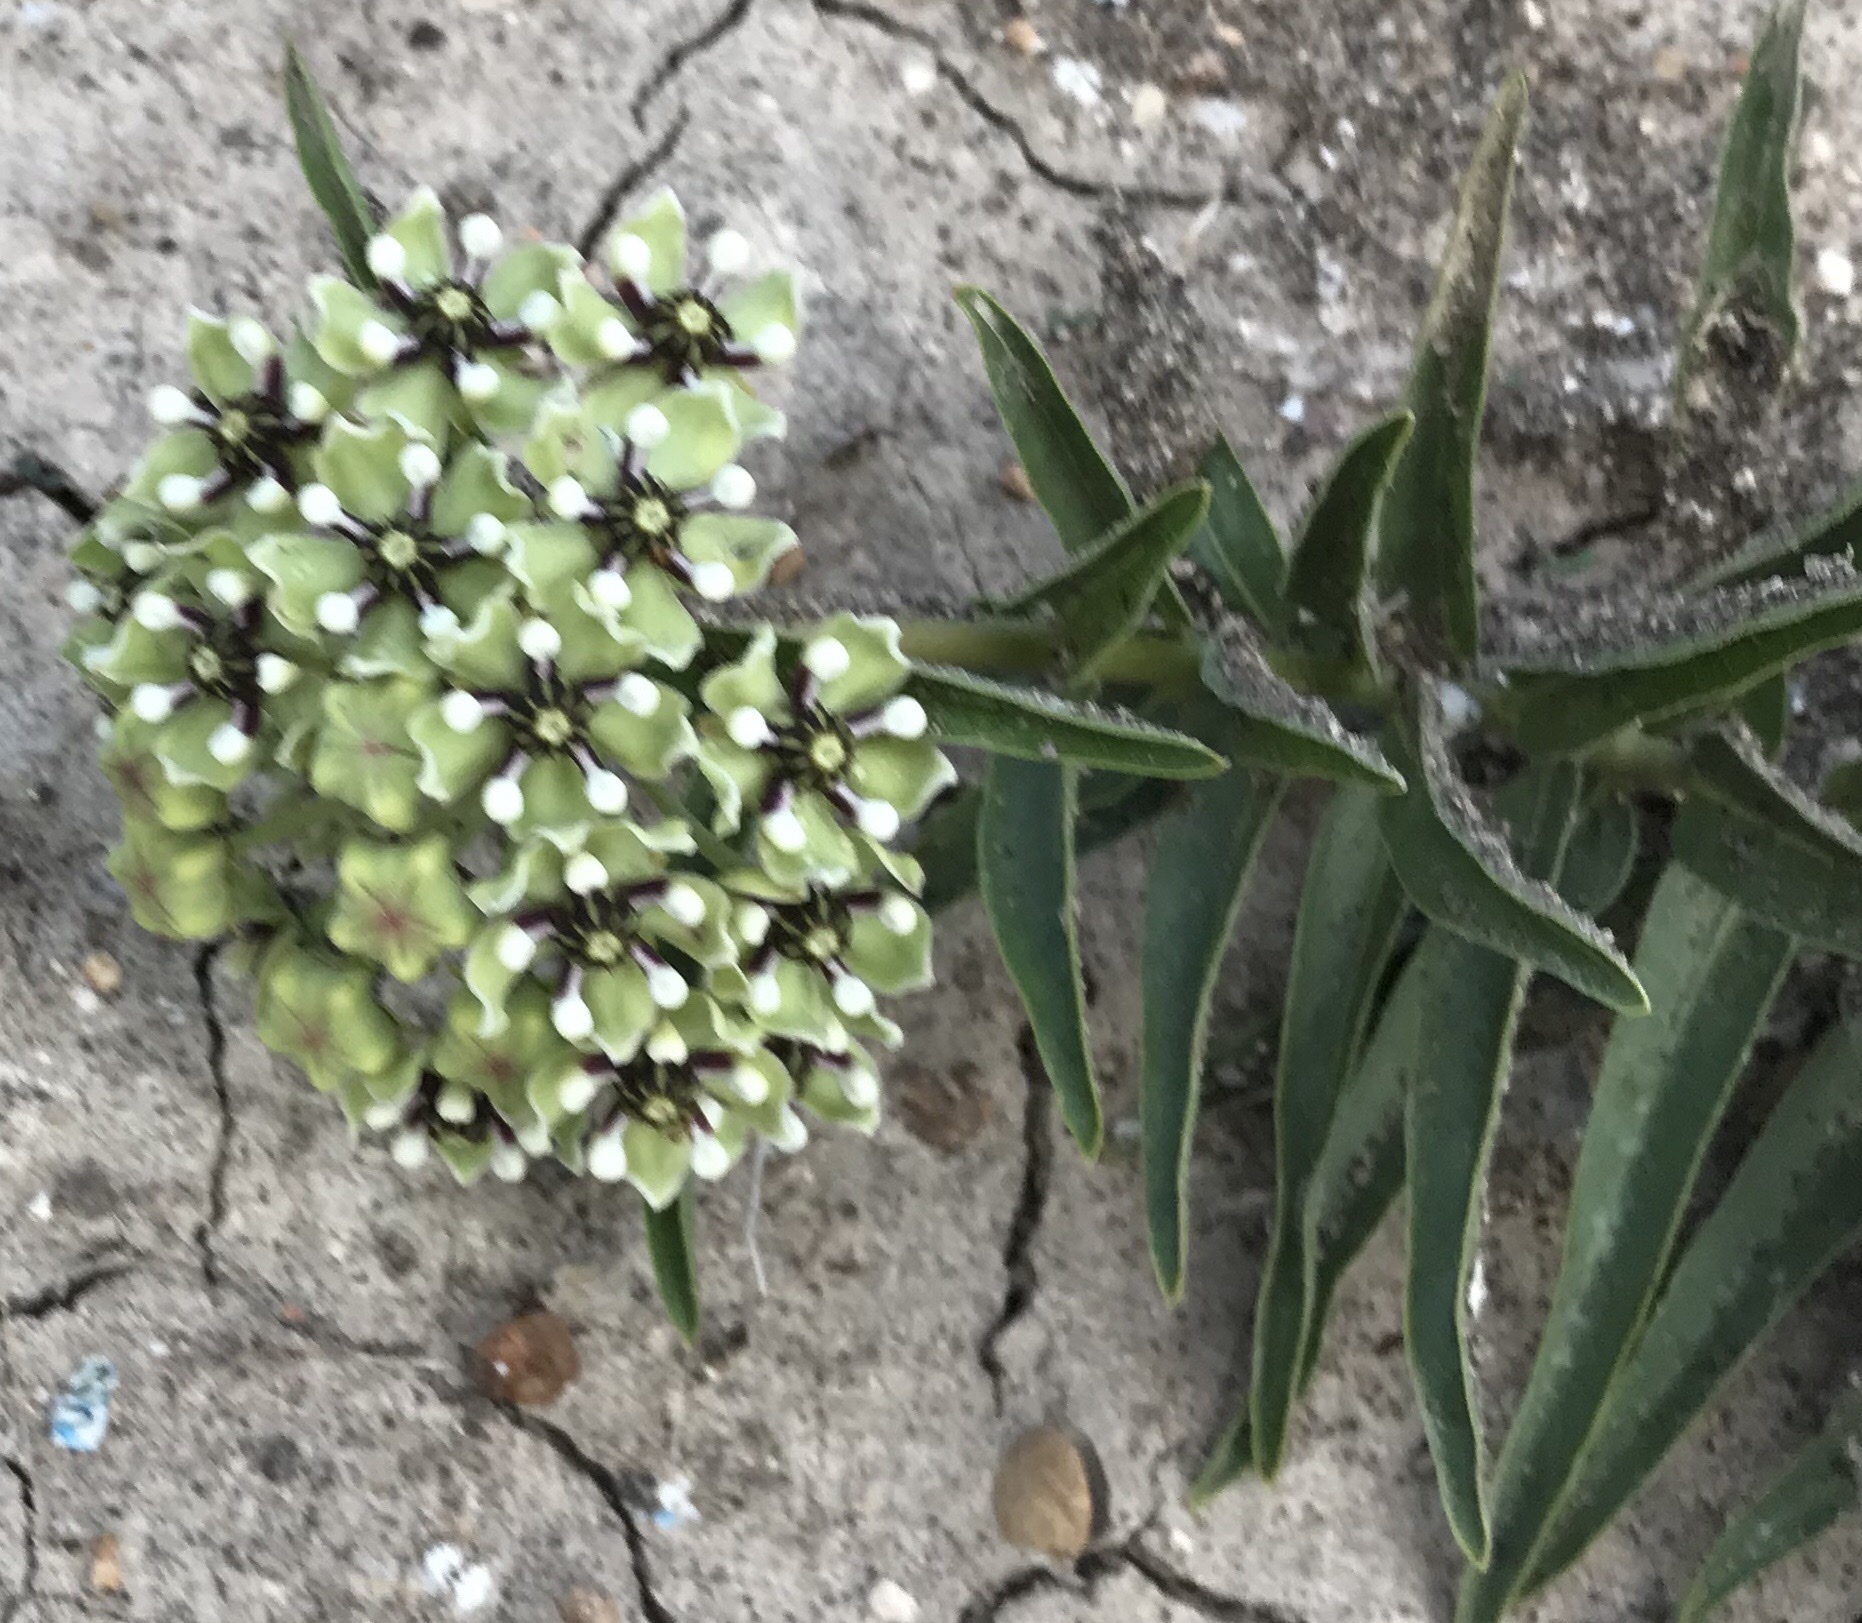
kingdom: Plantae
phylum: Tracheophyta
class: Magnoliopsida
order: Gentianales
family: Apocynaceae
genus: Asclepias
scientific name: Asclepias asperula
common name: Antelope horns
